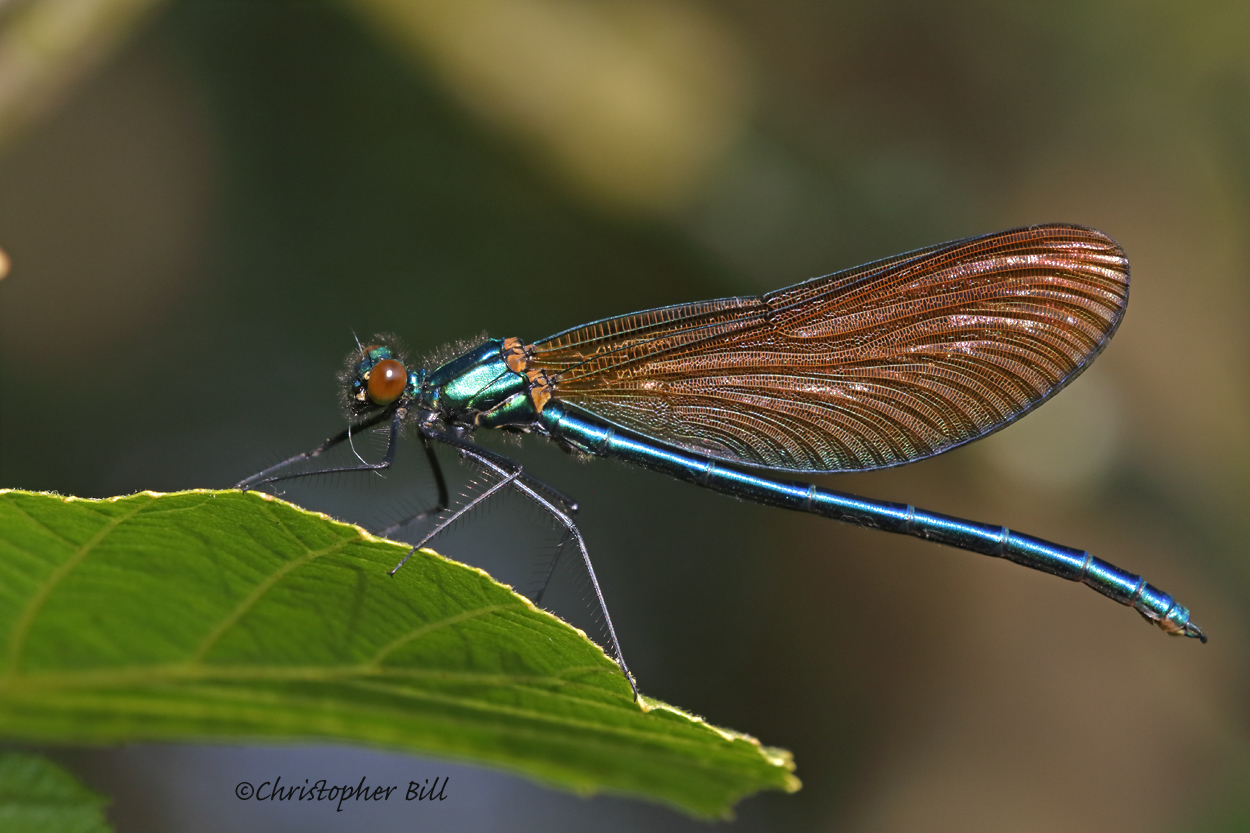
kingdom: Animalia
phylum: Arthropoda
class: Insecta
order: Odonata
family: Calopterygidae
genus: Calopteryx
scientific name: Calopteryx virgo
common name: Beautiful demoiselle
